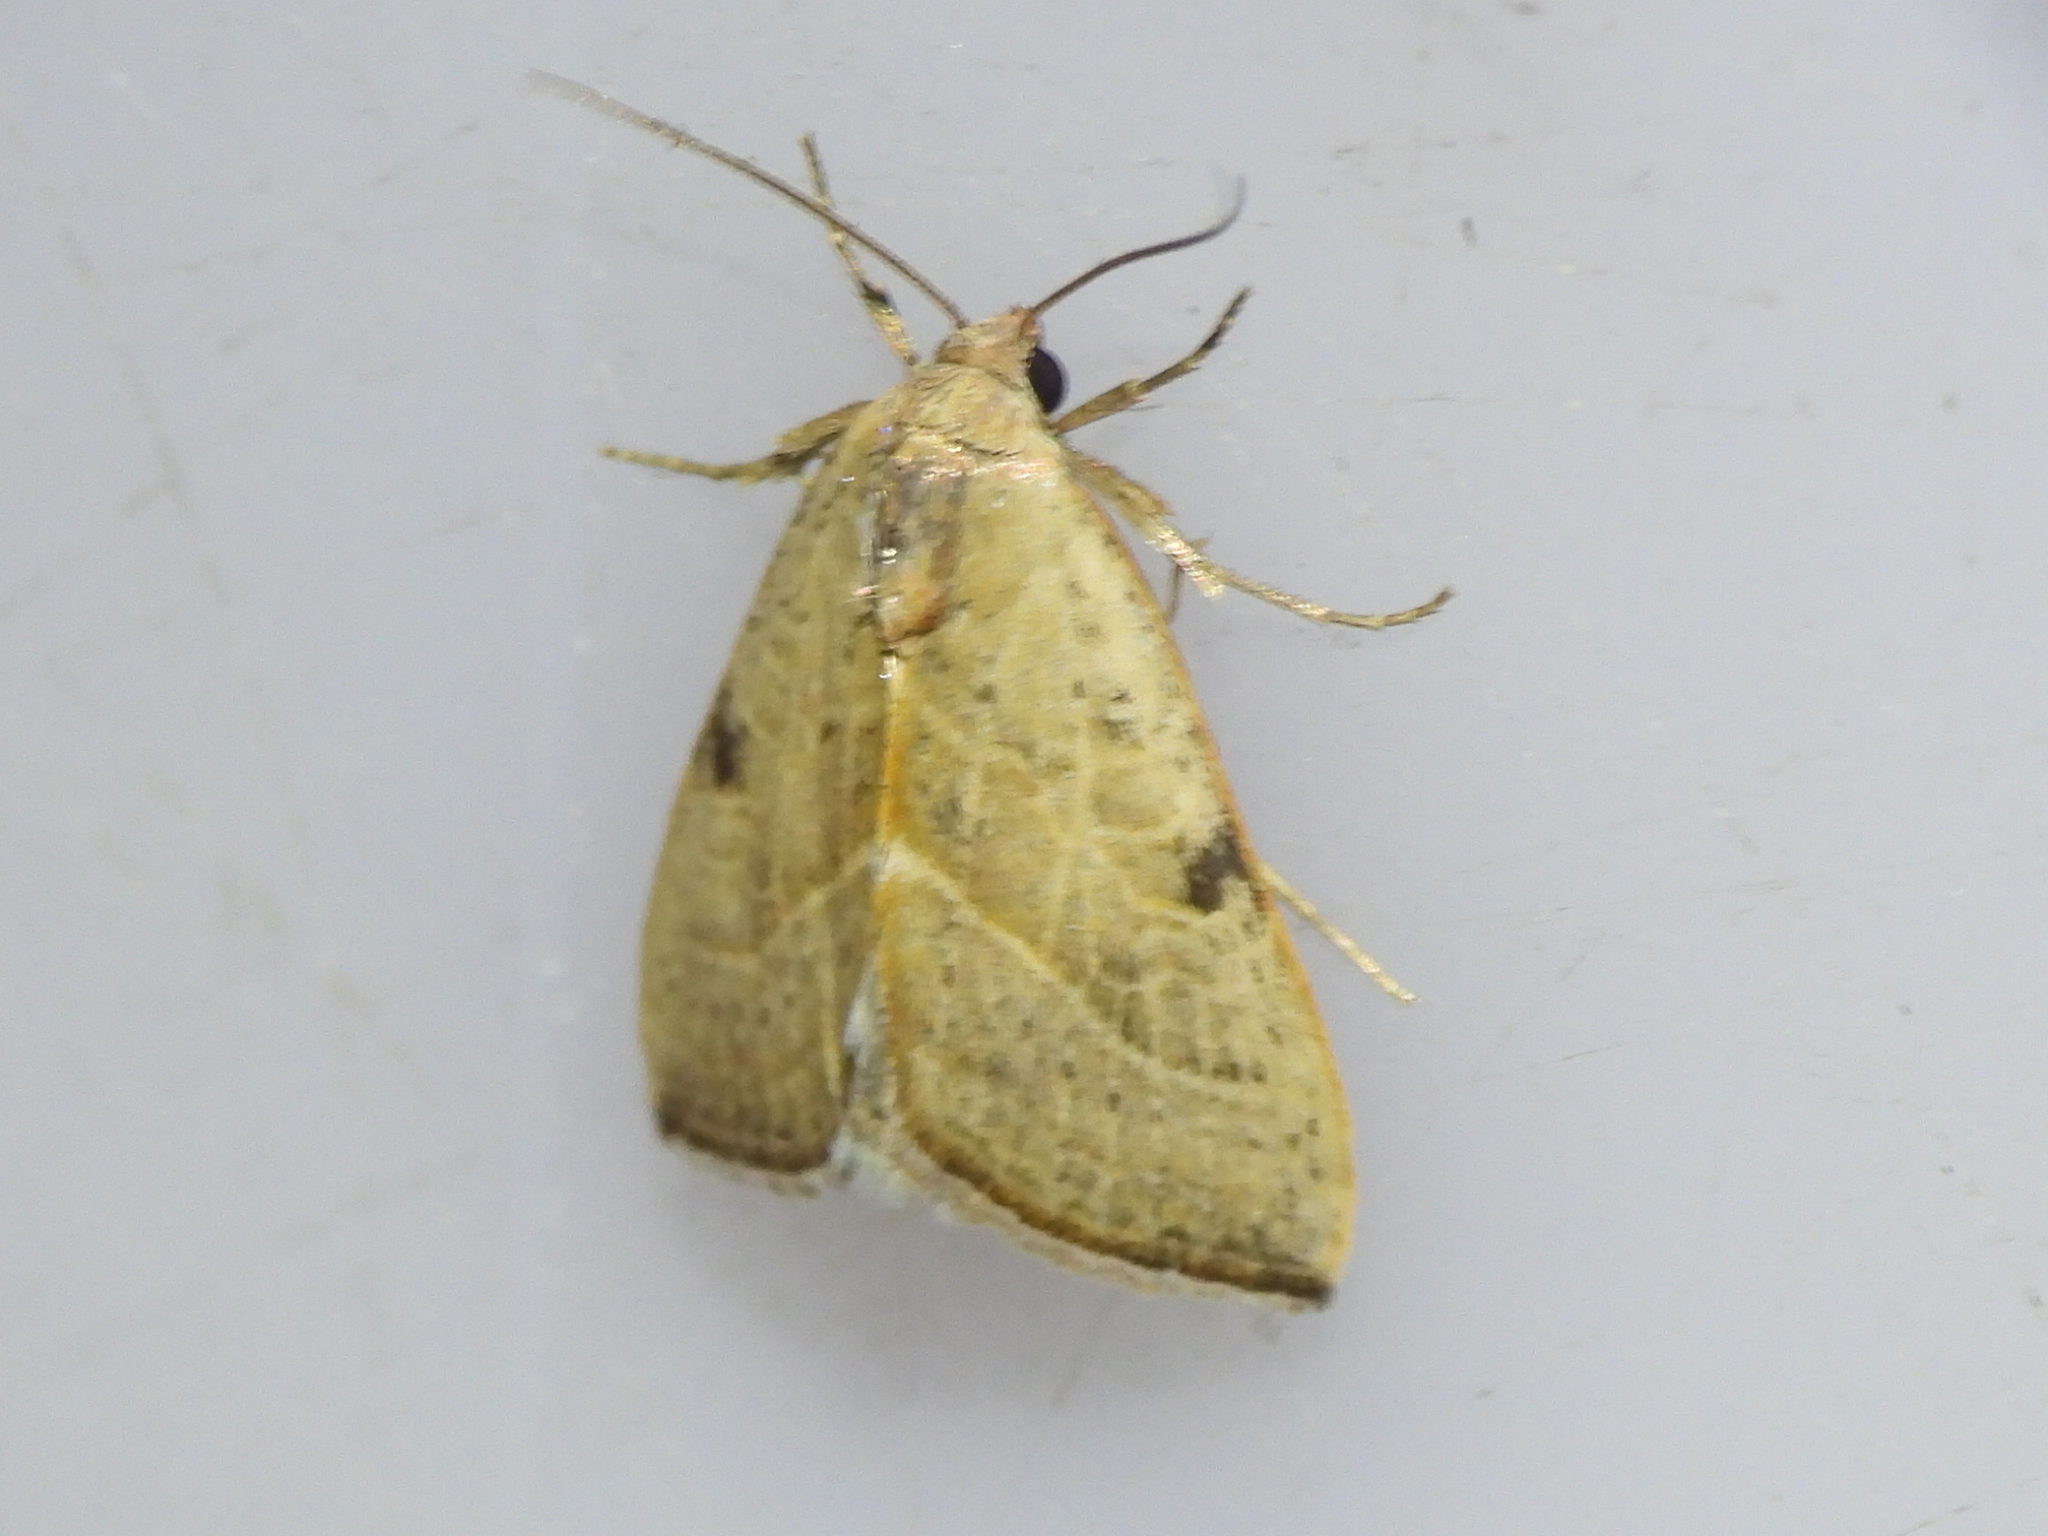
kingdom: Animalia
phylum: Arthropoda
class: Insecta
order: Lepidoptera
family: Noctuidae
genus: Galgula
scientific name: Galgula partita
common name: Wedgeling
